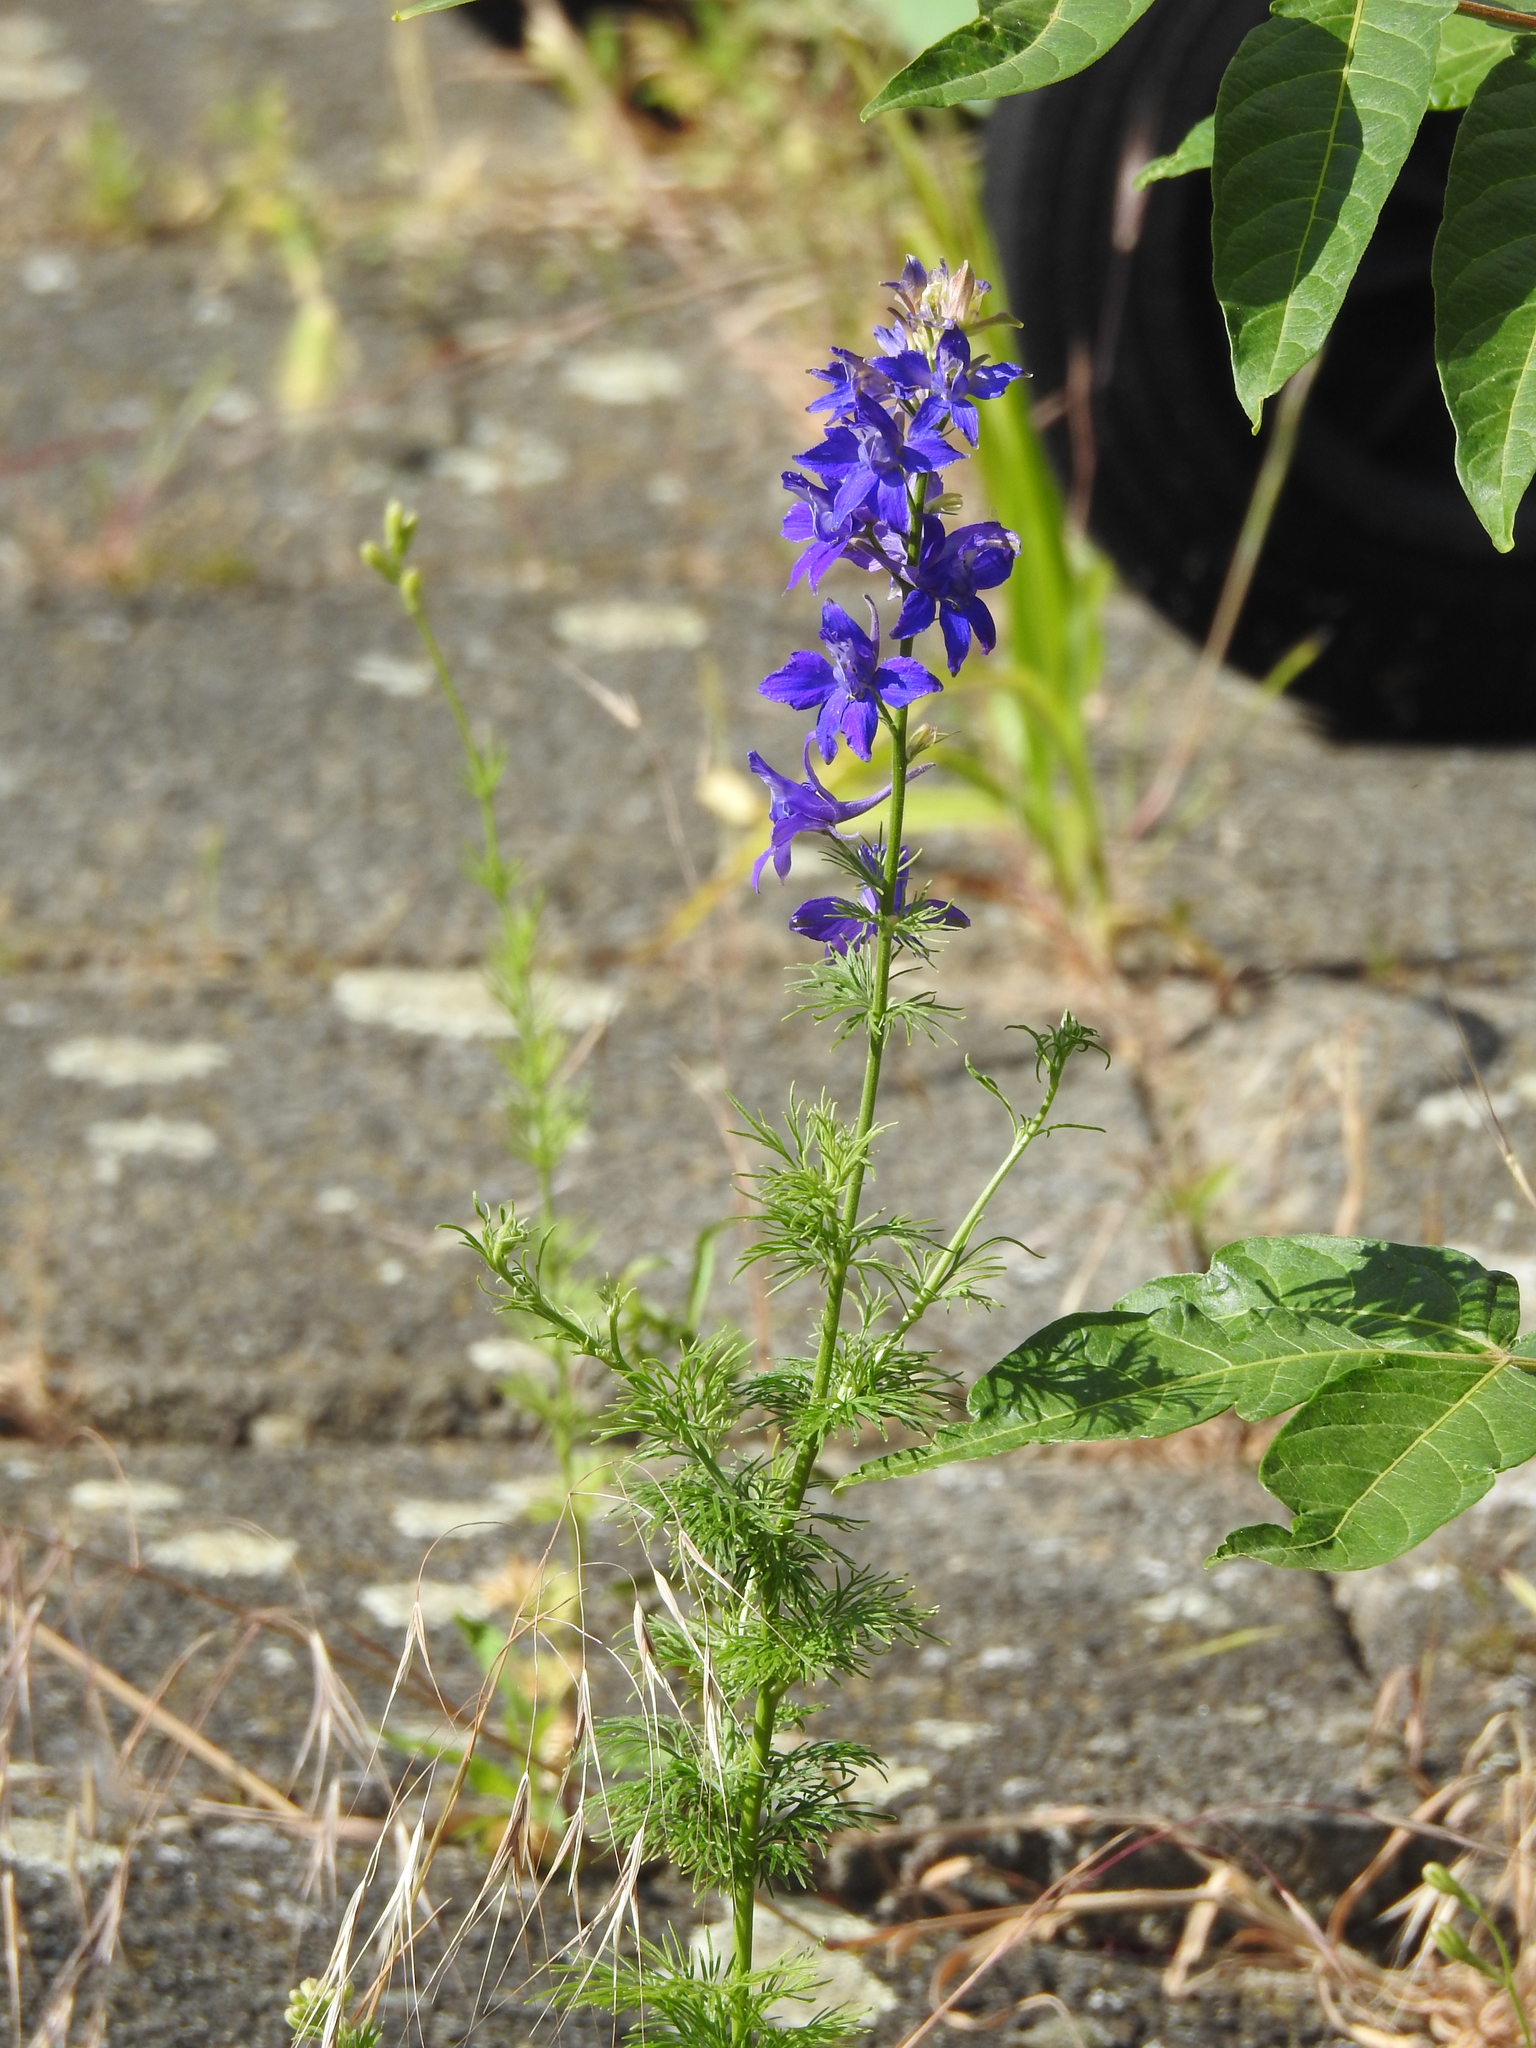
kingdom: Plantae
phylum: Tracheophyta
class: Magnoliopsida
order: Ranunculales
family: Ranunculaceae
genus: Delphinium
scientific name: Delphinium ajacis
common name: Doubtful knight's-spur
